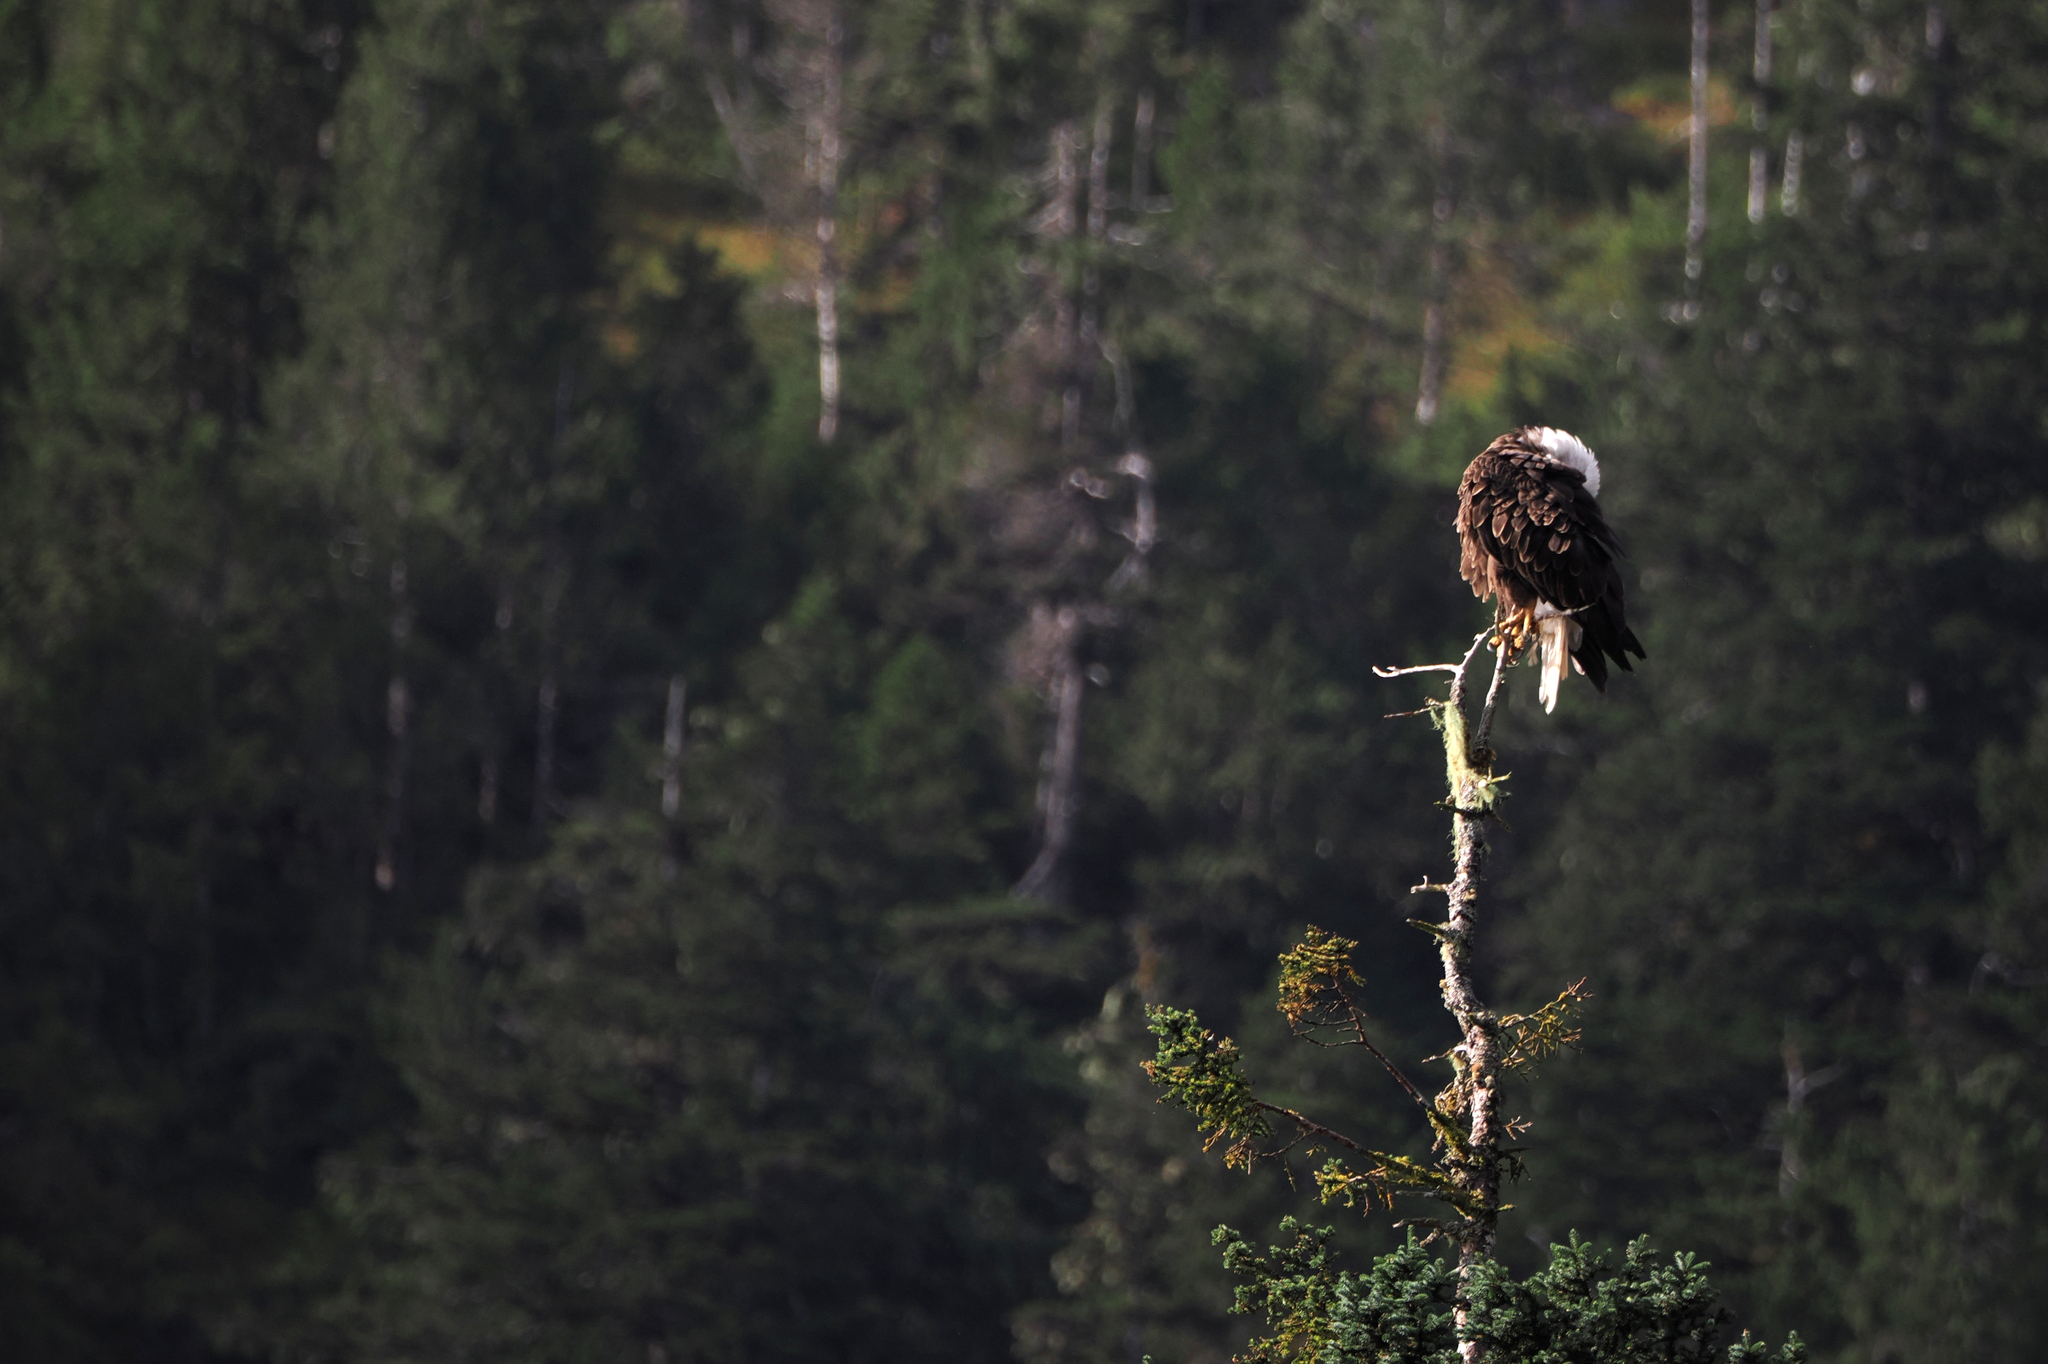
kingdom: Animalia
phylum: Chordata
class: Aves
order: Accipitriformes
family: Accipitridae
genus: Haliaeetus
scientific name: Haliaeetus leucocephalus
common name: Bald eagle
